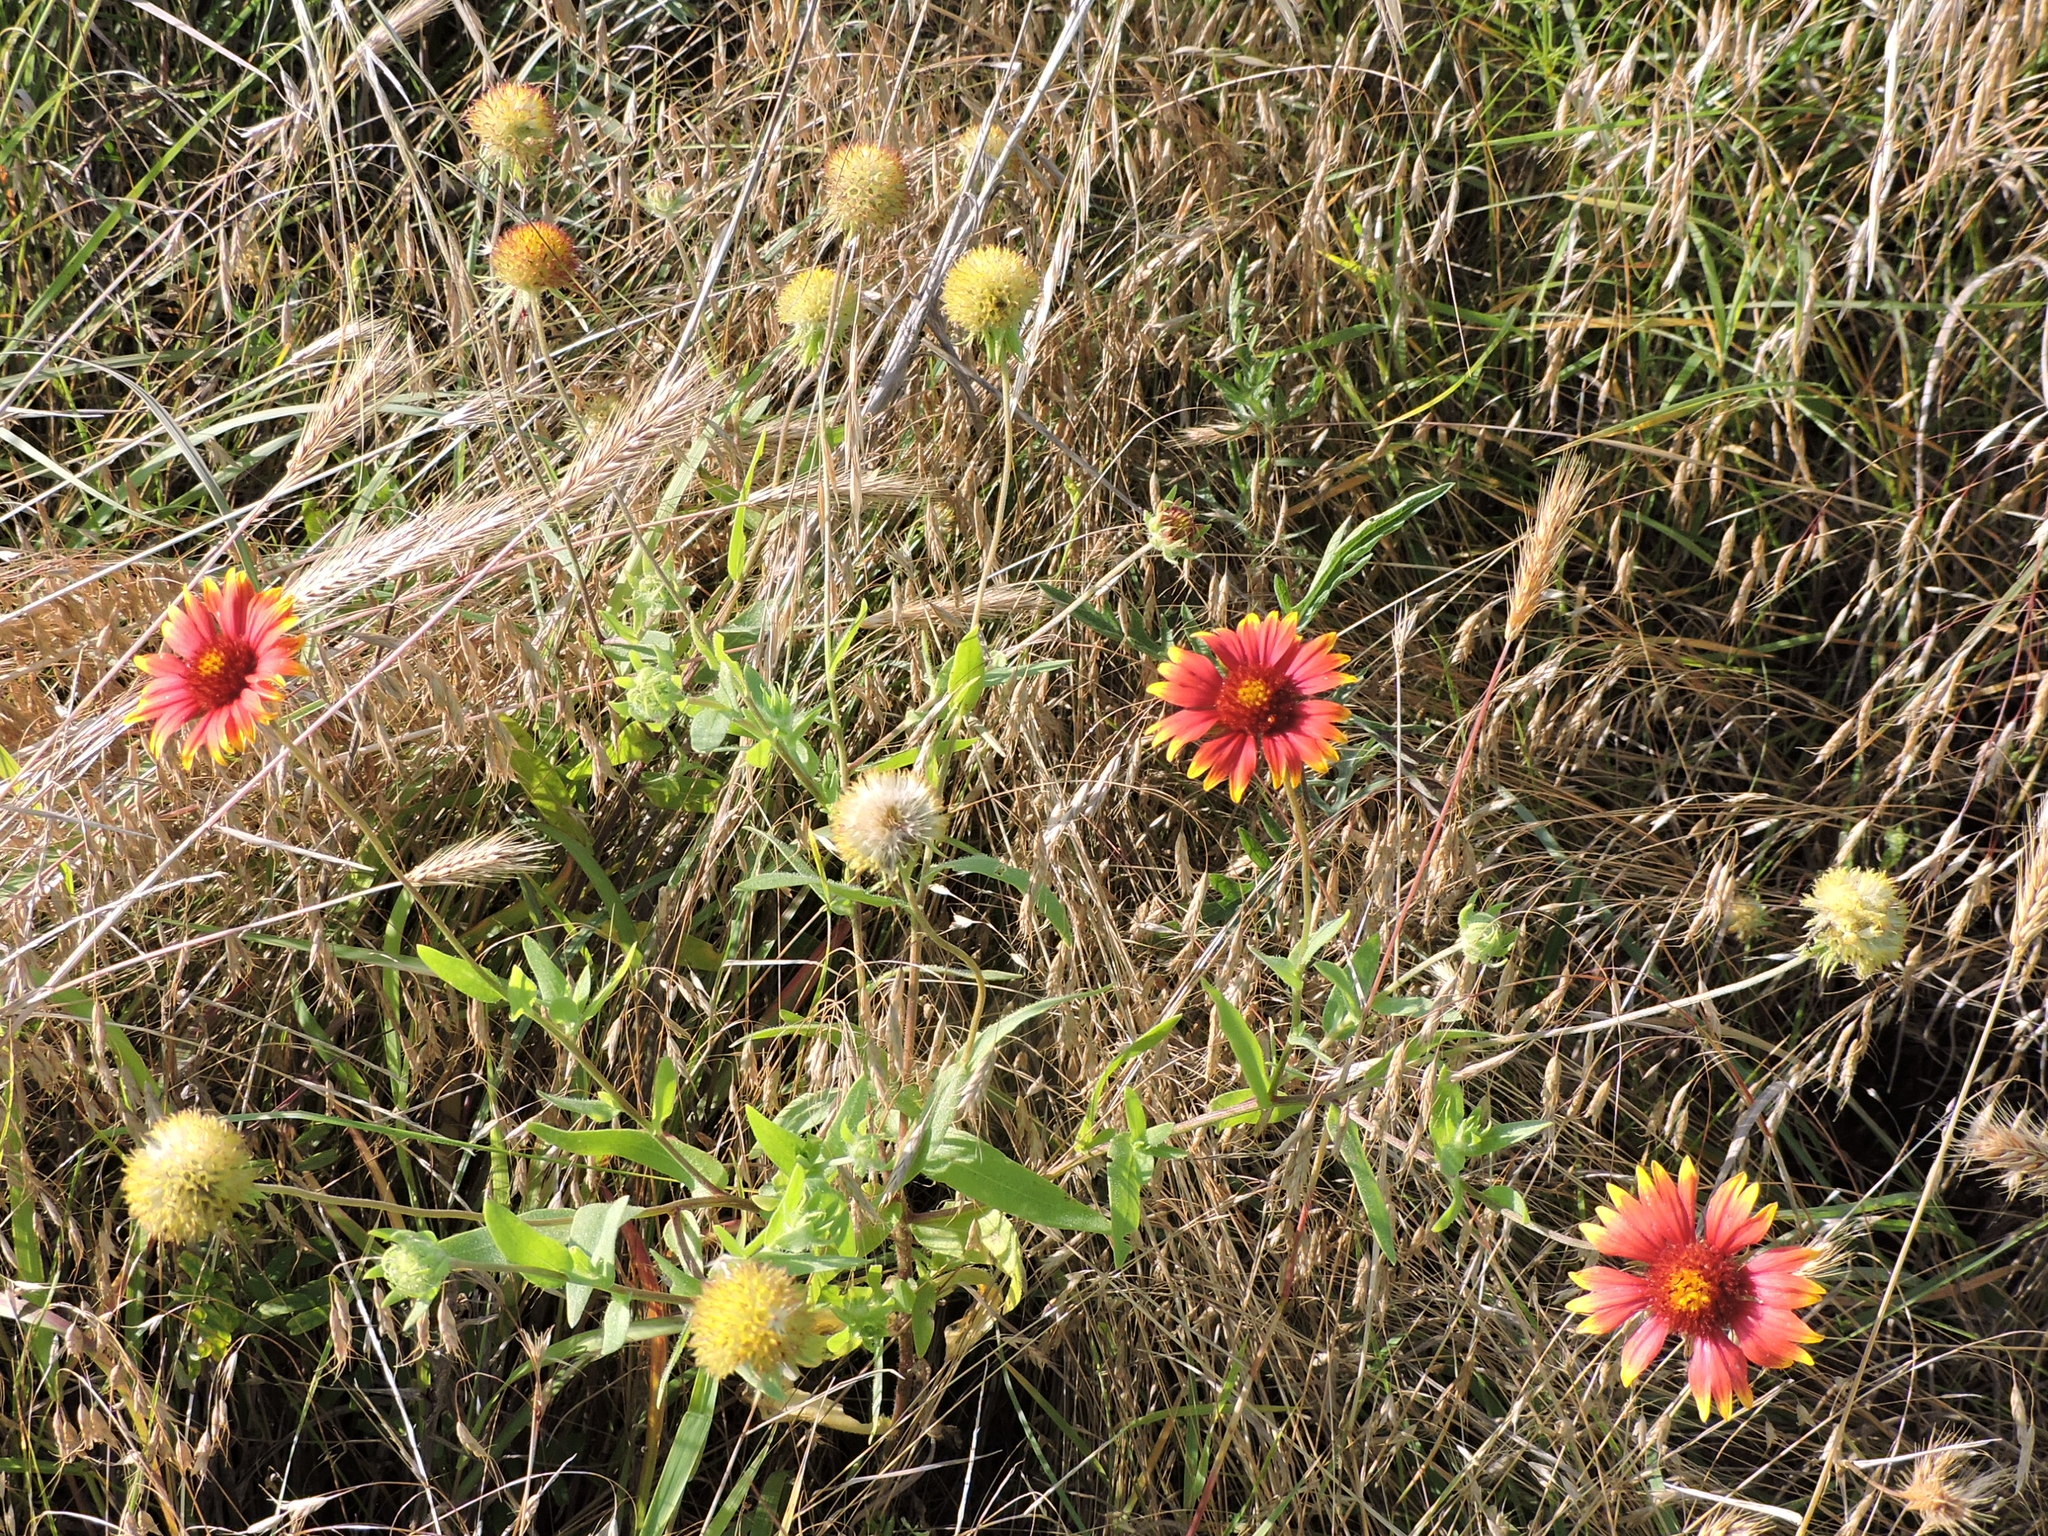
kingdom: Plantae
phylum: Tracheophyta
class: Magnoliopsida
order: Asterales
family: Asteraceae
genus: Gaillardia
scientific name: Gaillardia pulchella
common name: Firewheel
